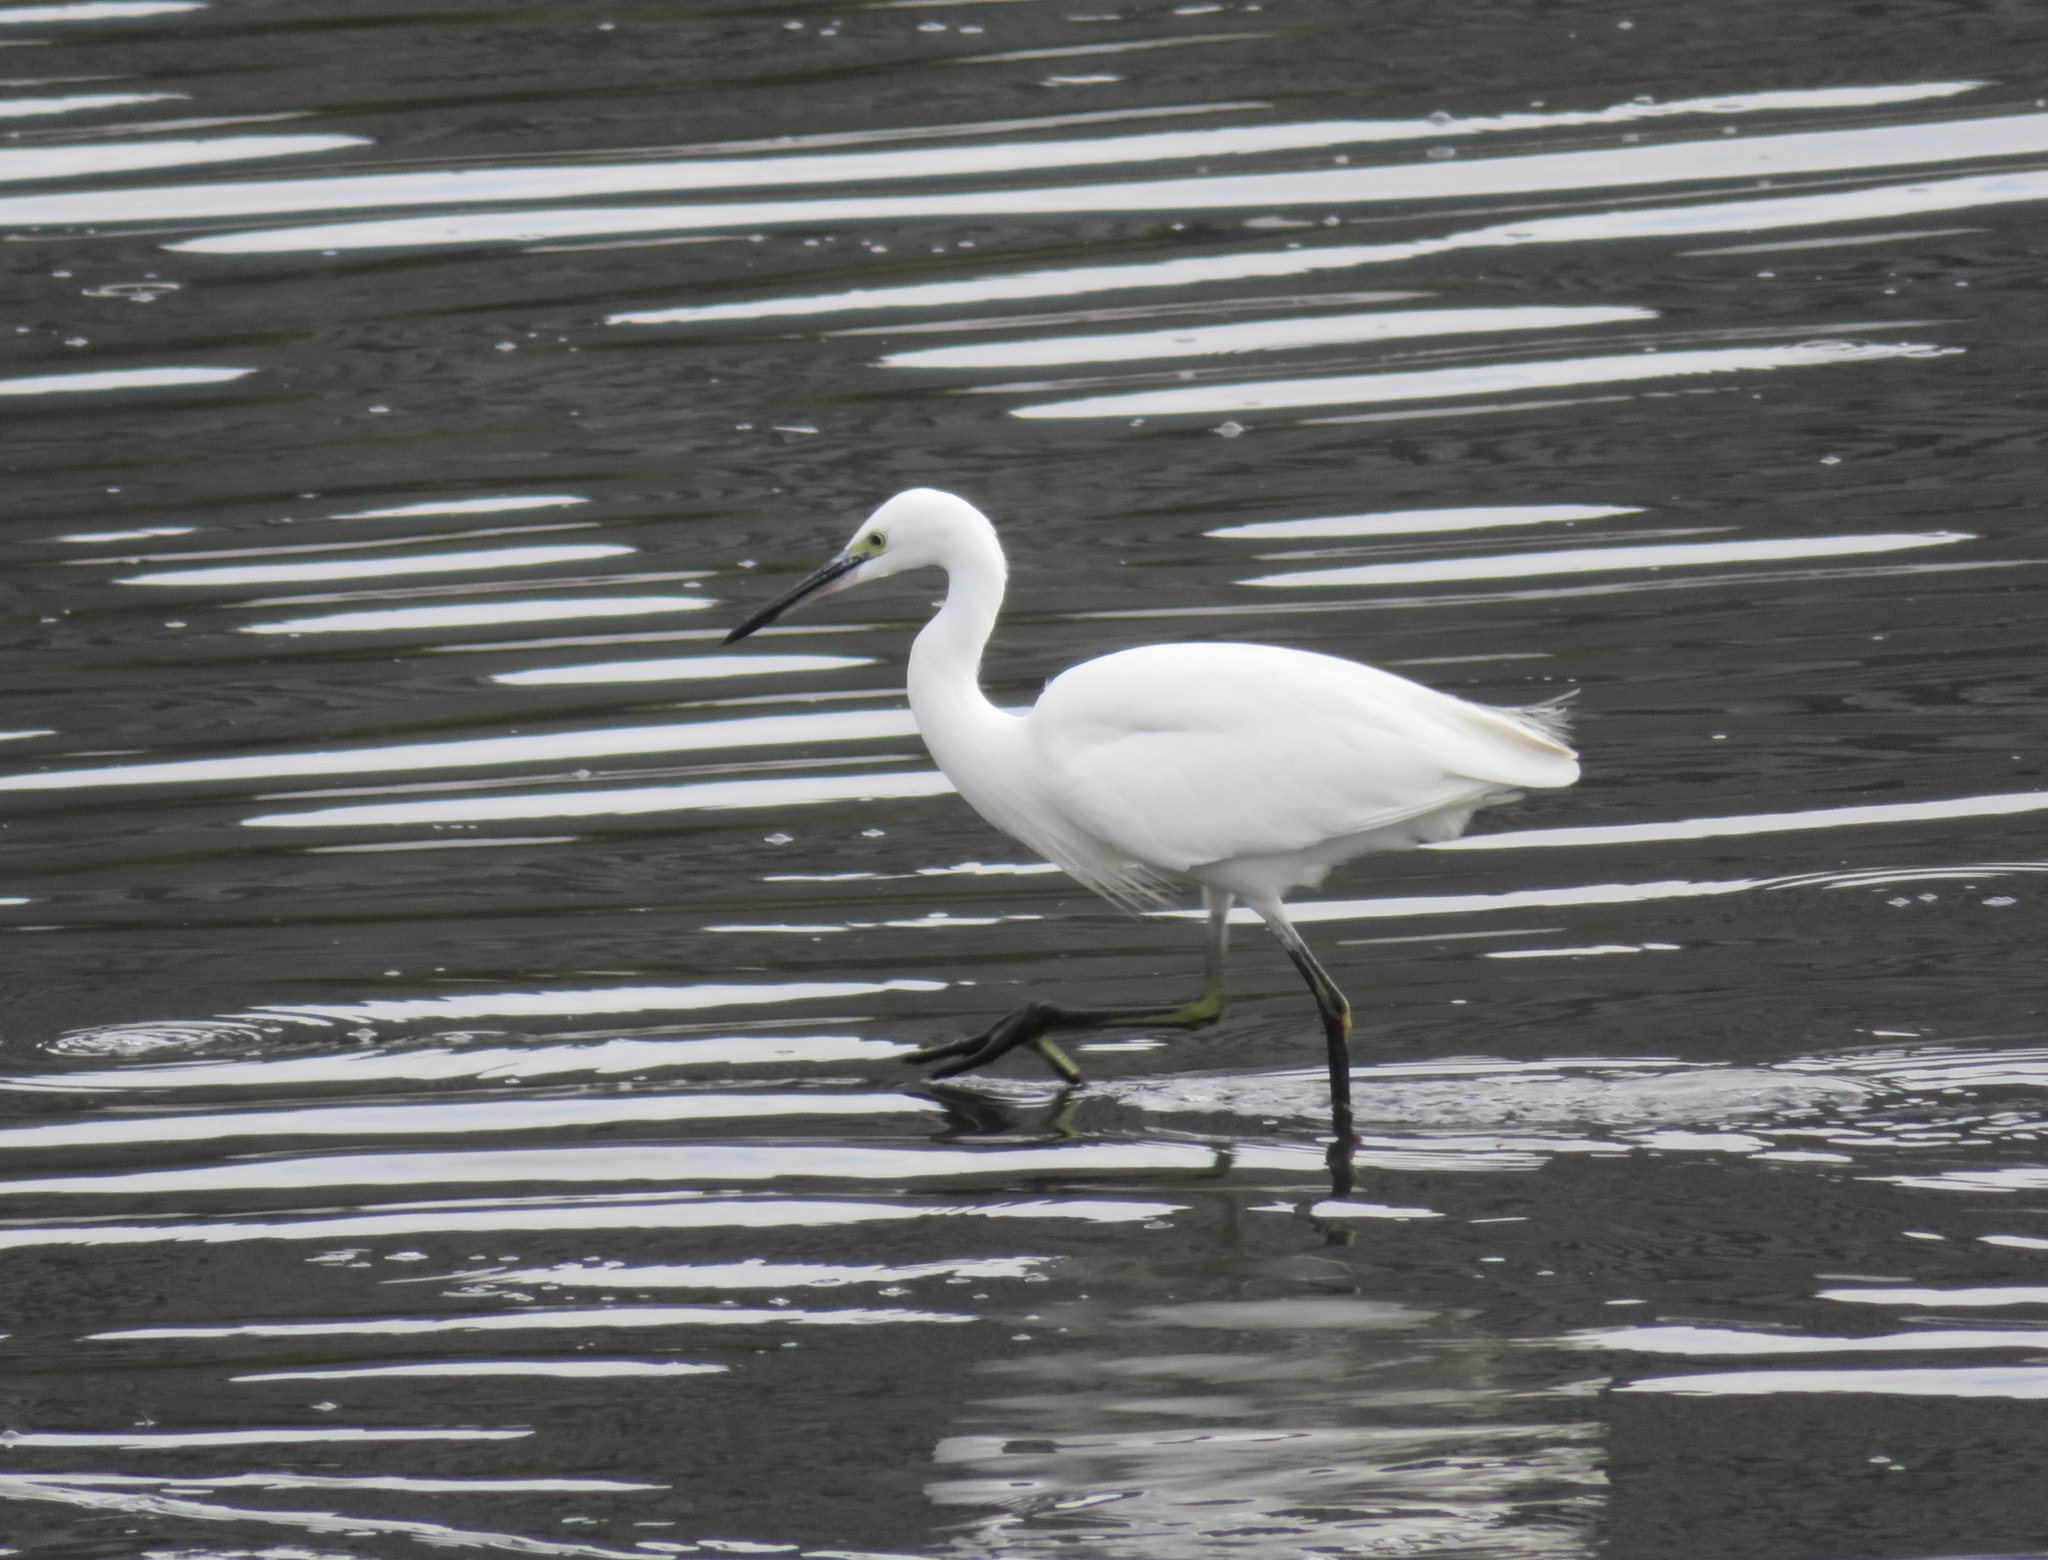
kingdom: Animalia
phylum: Chordata
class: Aves
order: Pelecaniformes
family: Ardeidae
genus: Egretta
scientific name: Egretta garzetta
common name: Little egret
